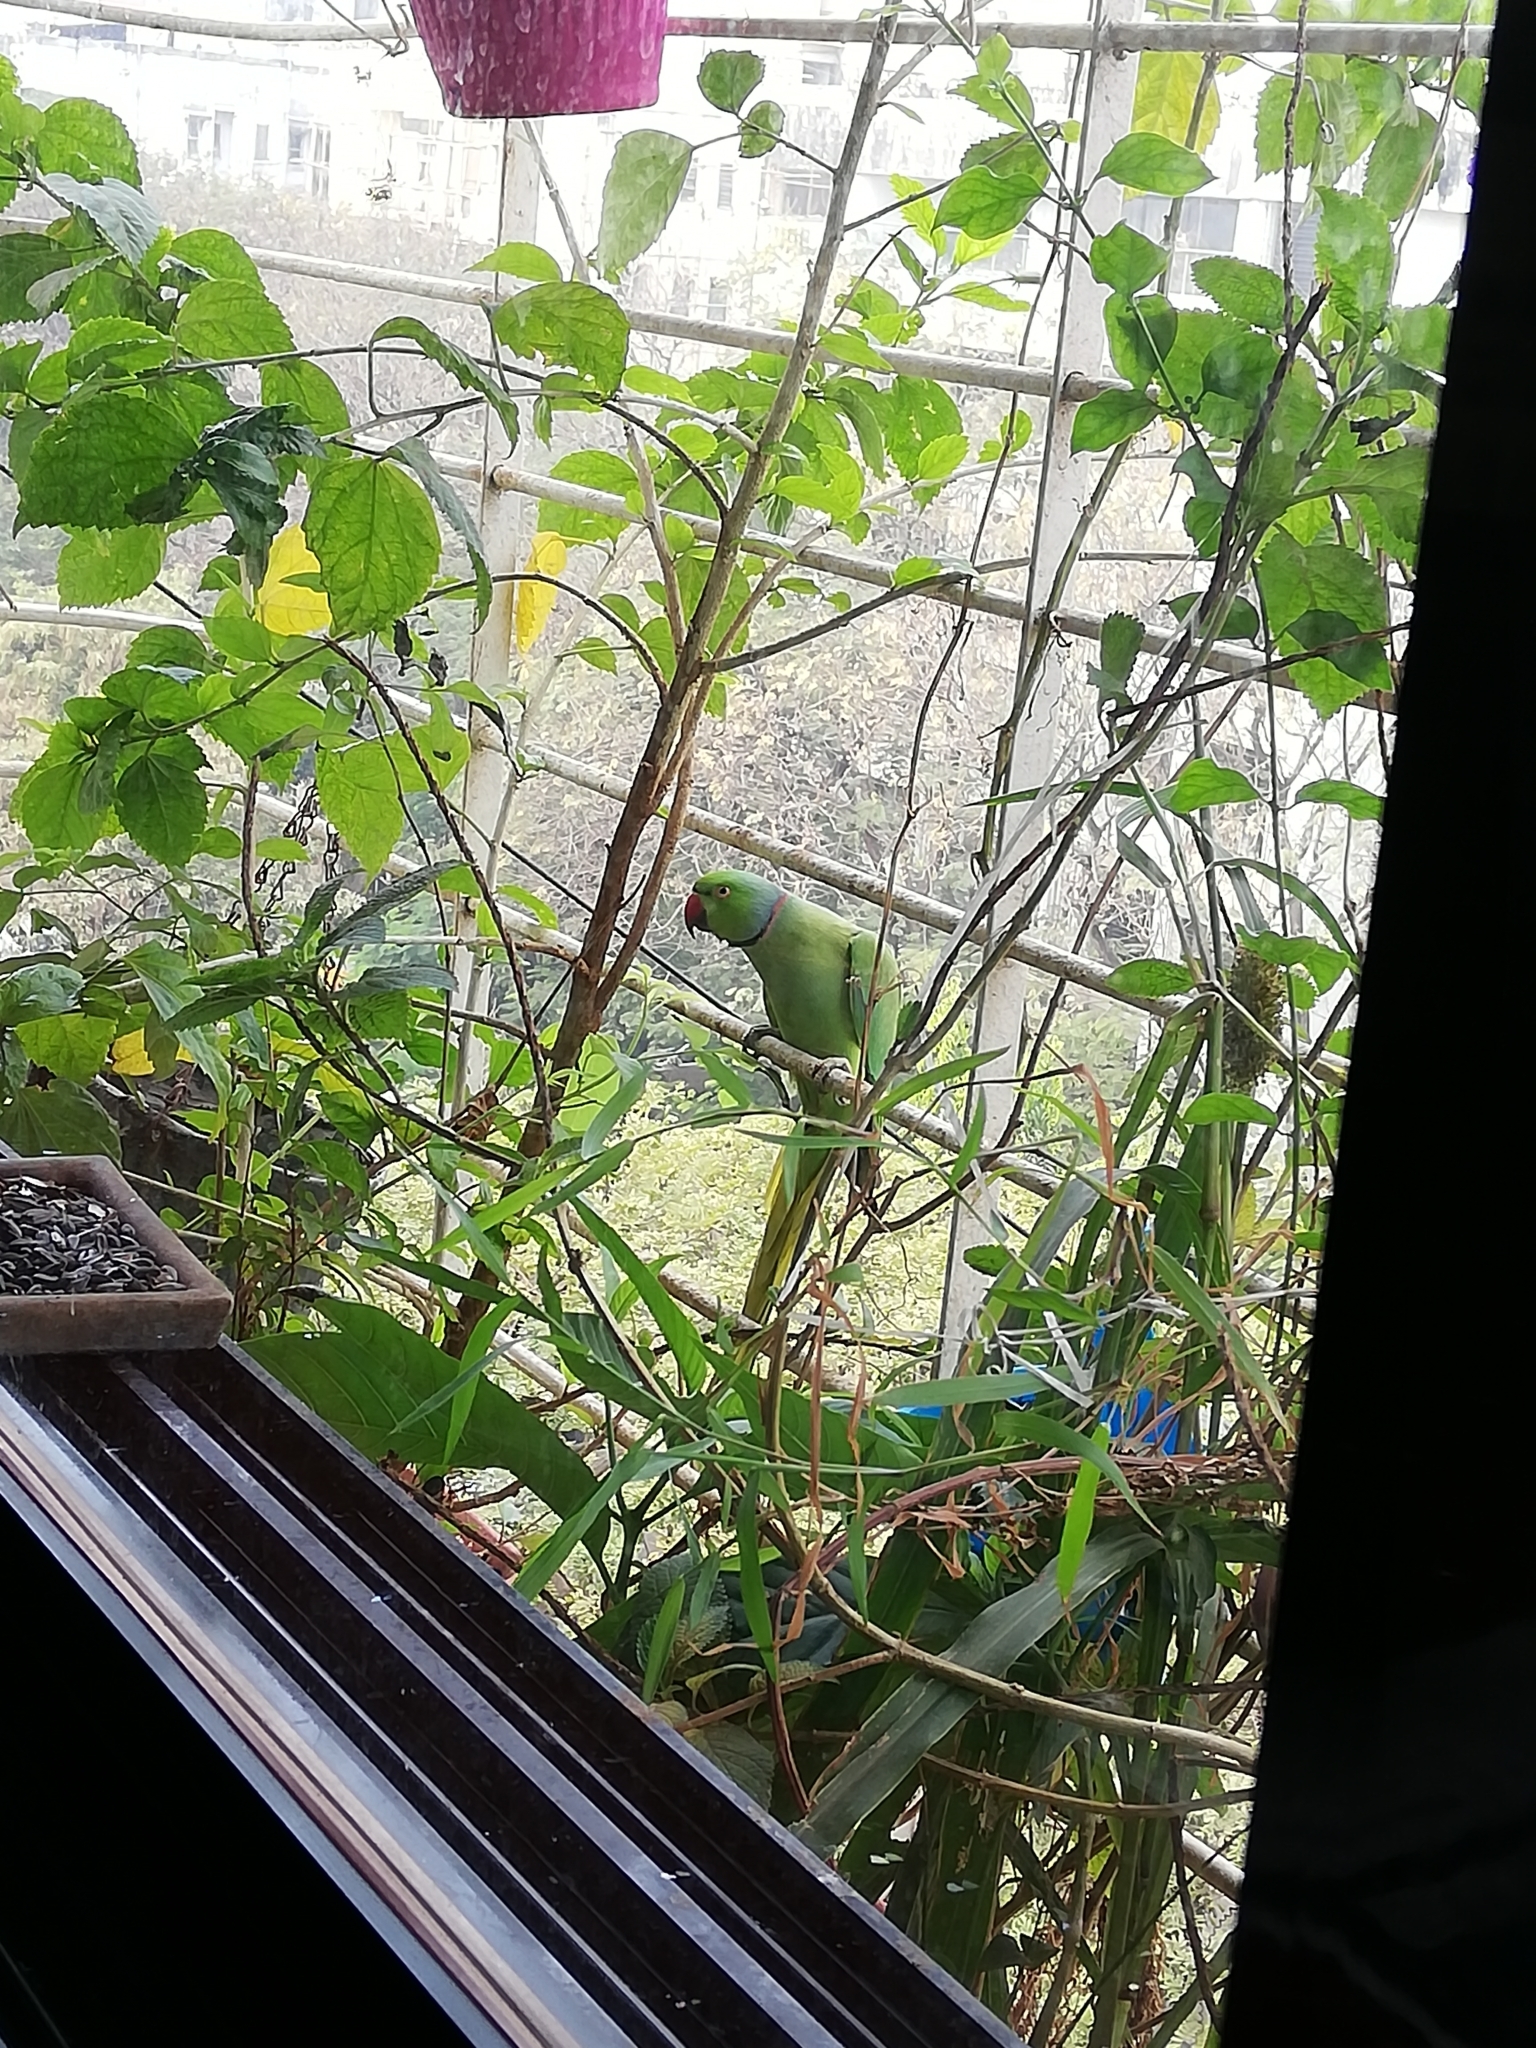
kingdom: Animalia
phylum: Chordata
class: Aves
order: Psittaciformes
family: Psittacidae
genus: Psittacula
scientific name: Psittacula krameri
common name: Rose-ringed parakeet
